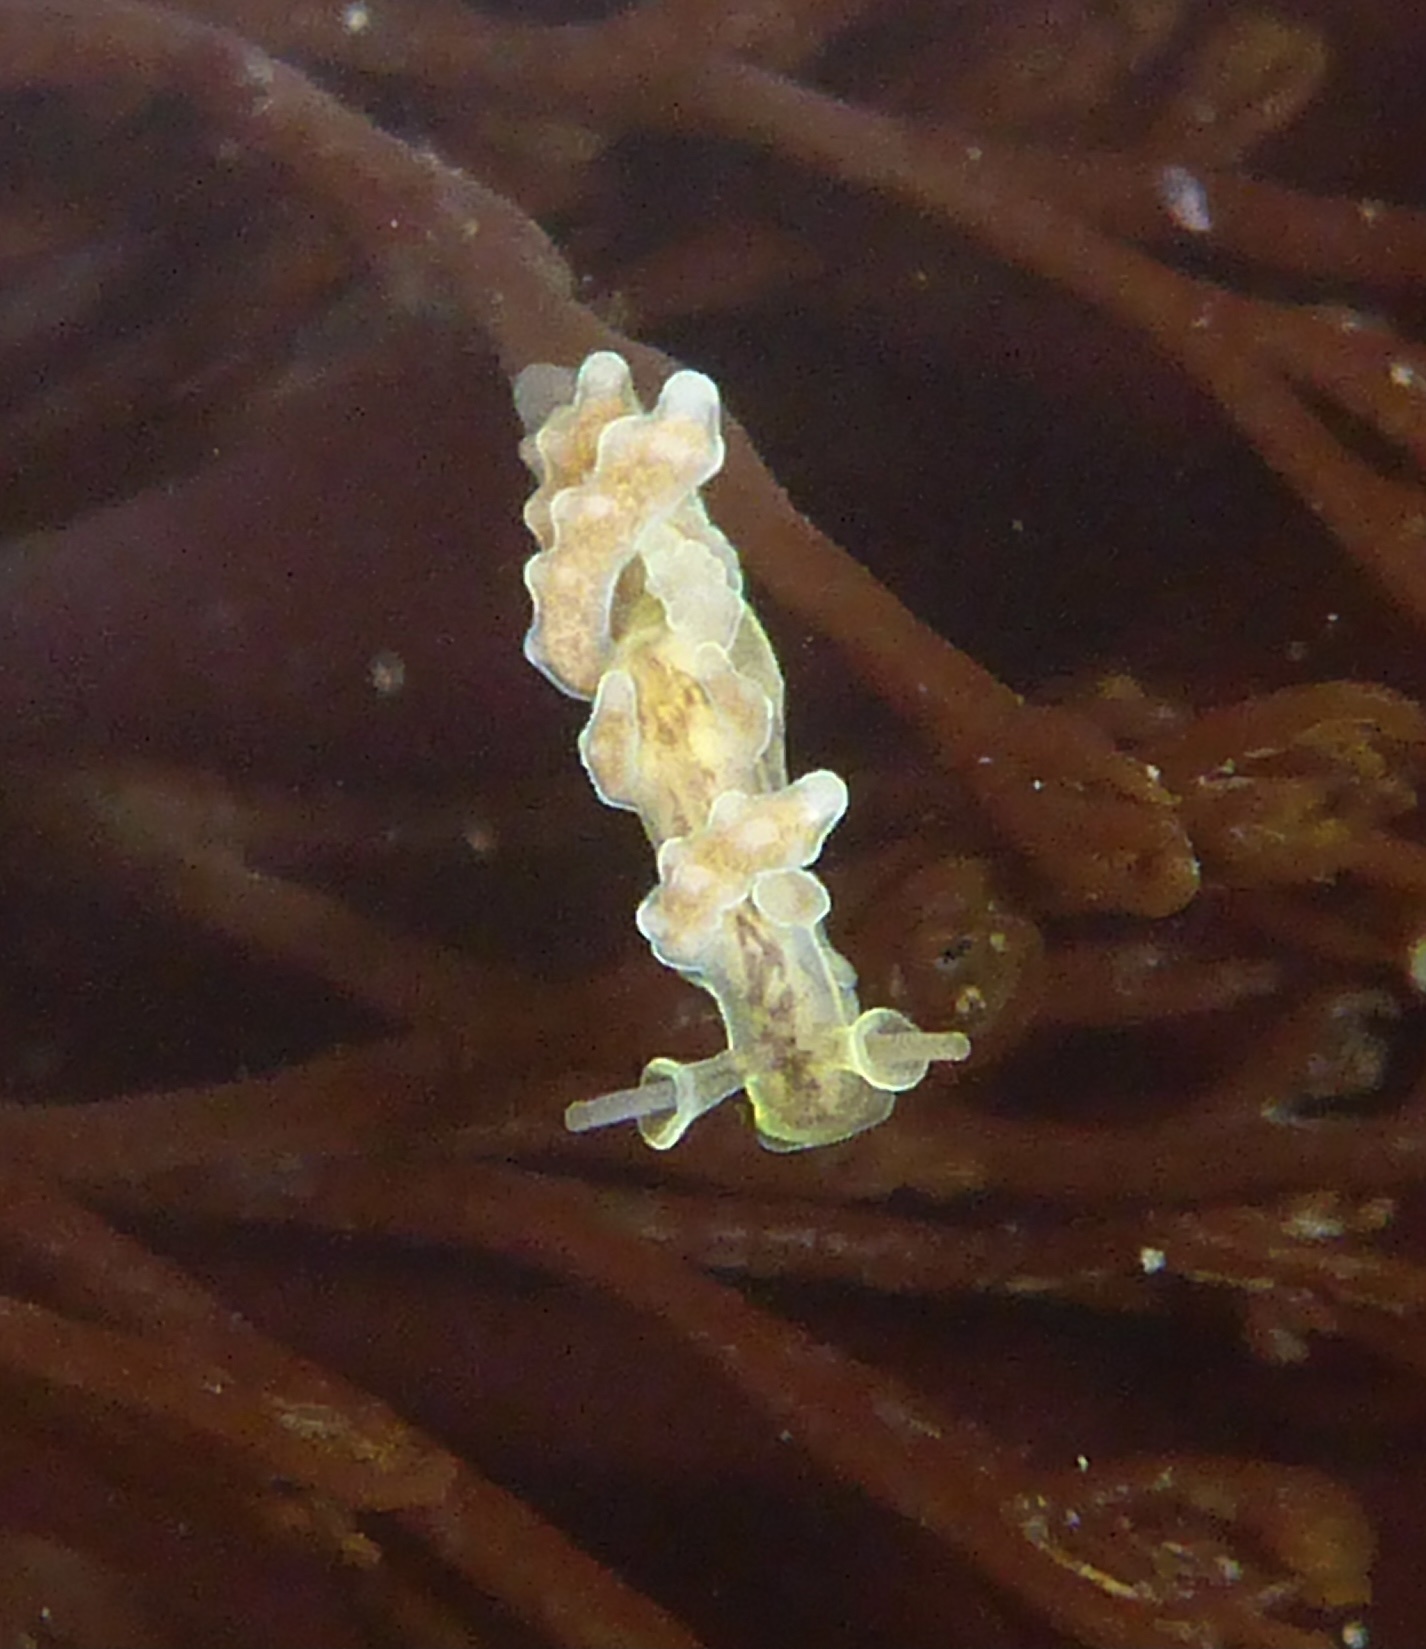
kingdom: Animalia
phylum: Mollusca
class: Gastropoda
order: Nudibranchia
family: Dotidae
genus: Doto
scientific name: Doto columbiana
